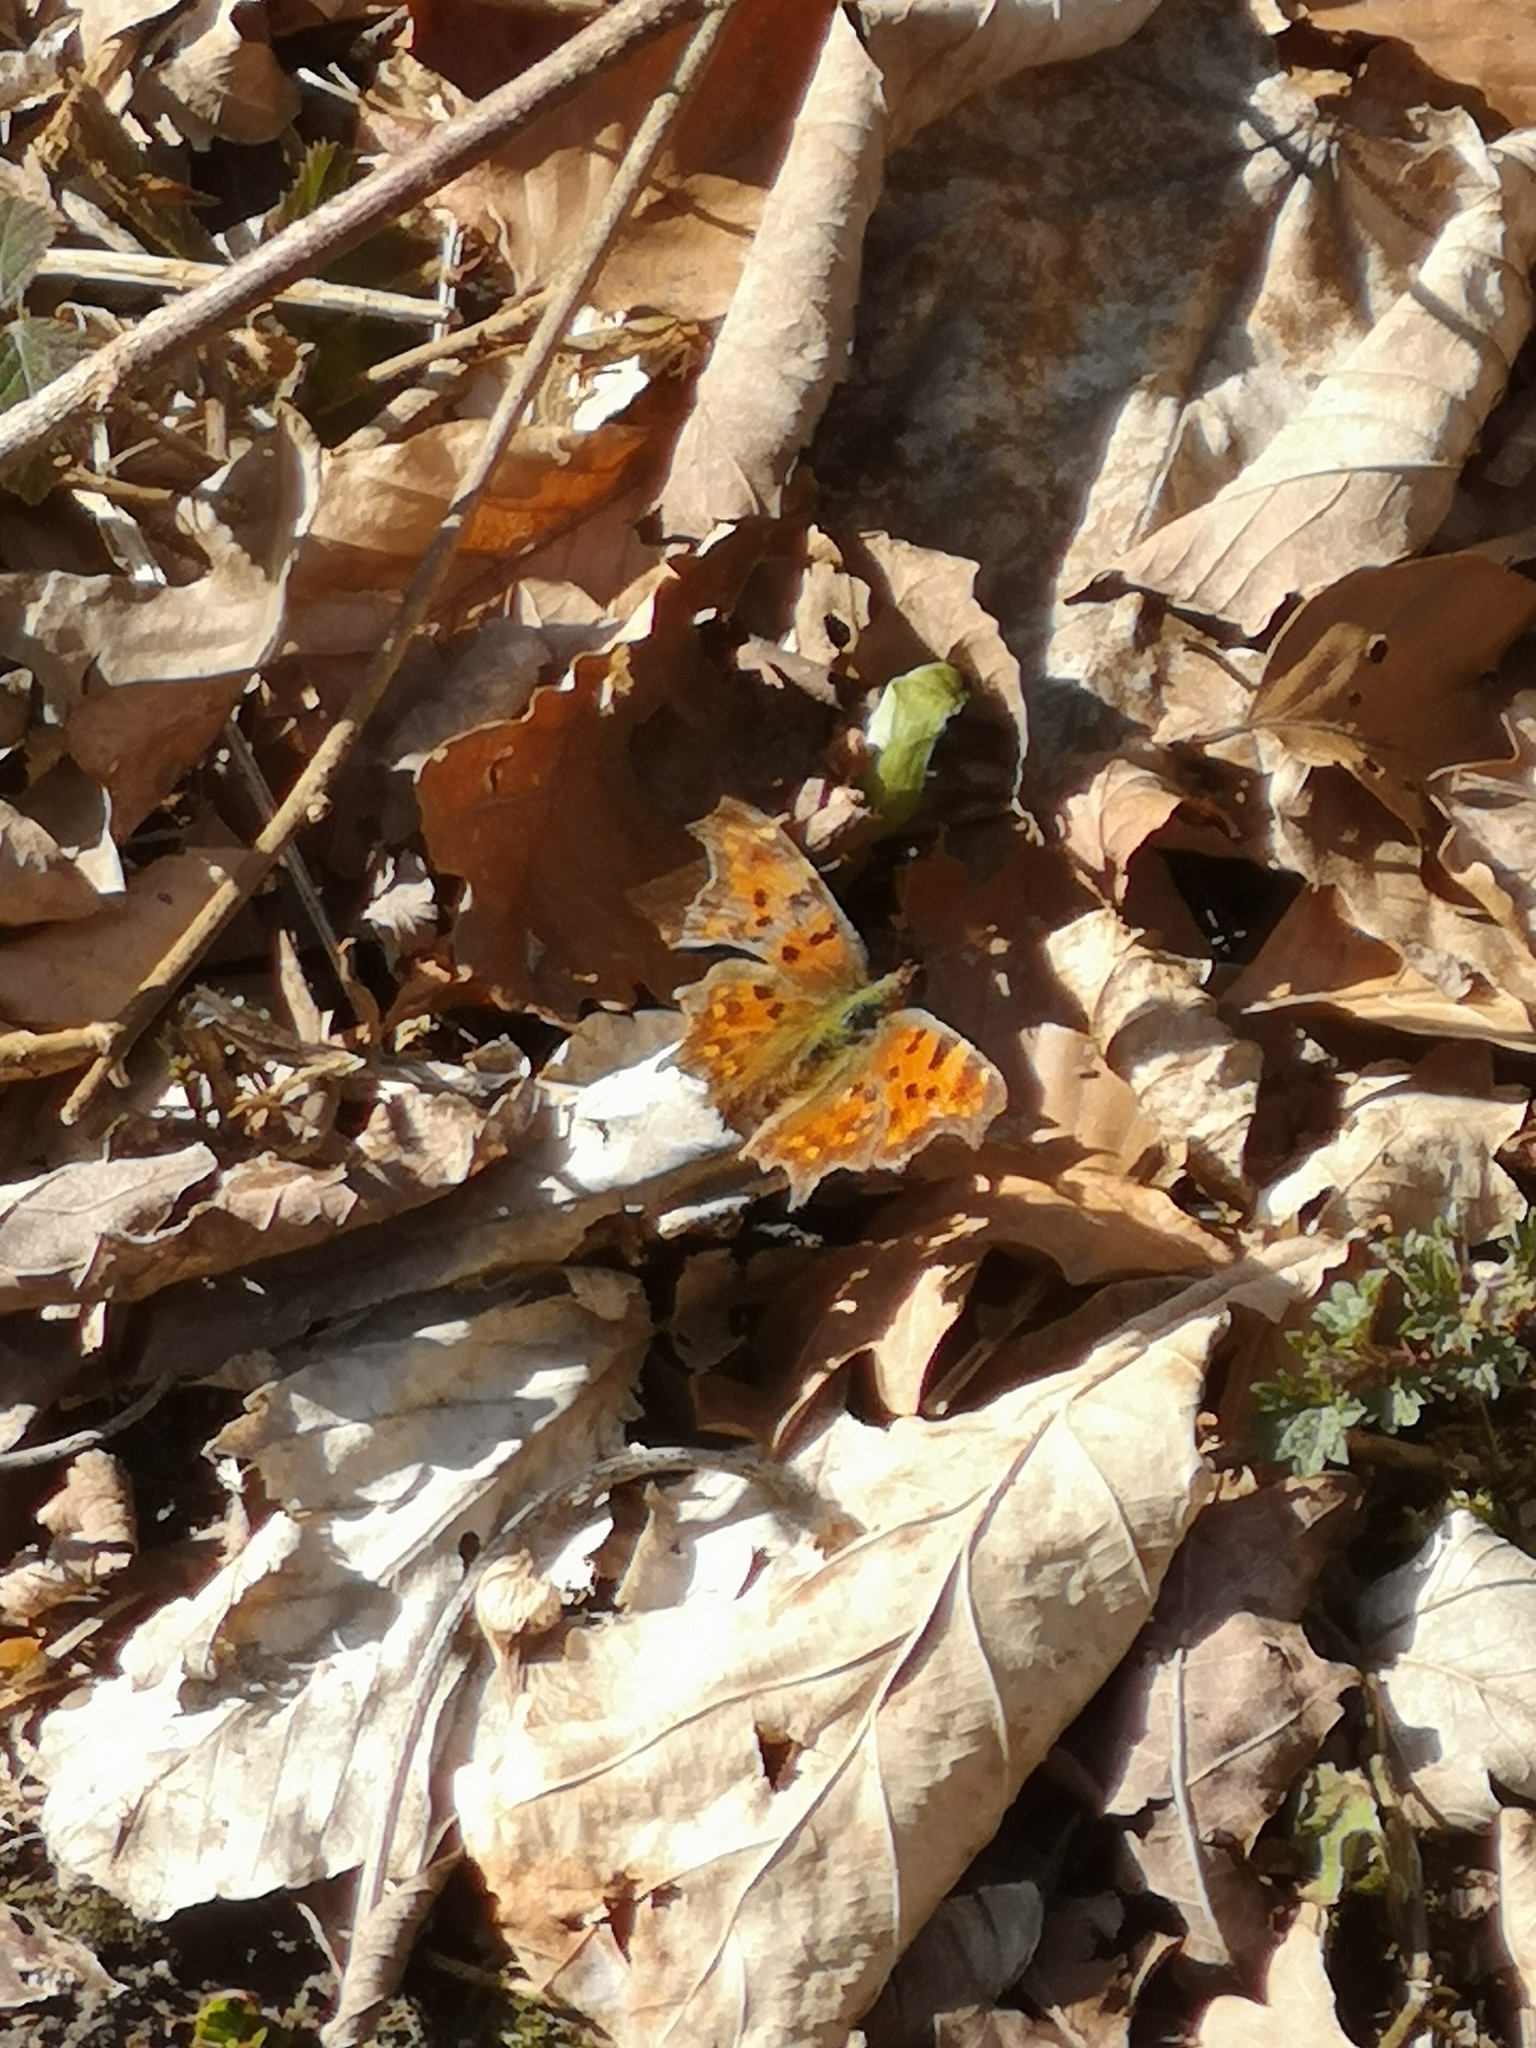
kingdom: Animalia
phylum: Arthropoda
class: Insecta
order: Lepidoptera
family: Nymphalidae
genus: Polygonia
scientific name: Polygonia c-album
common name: Comma
